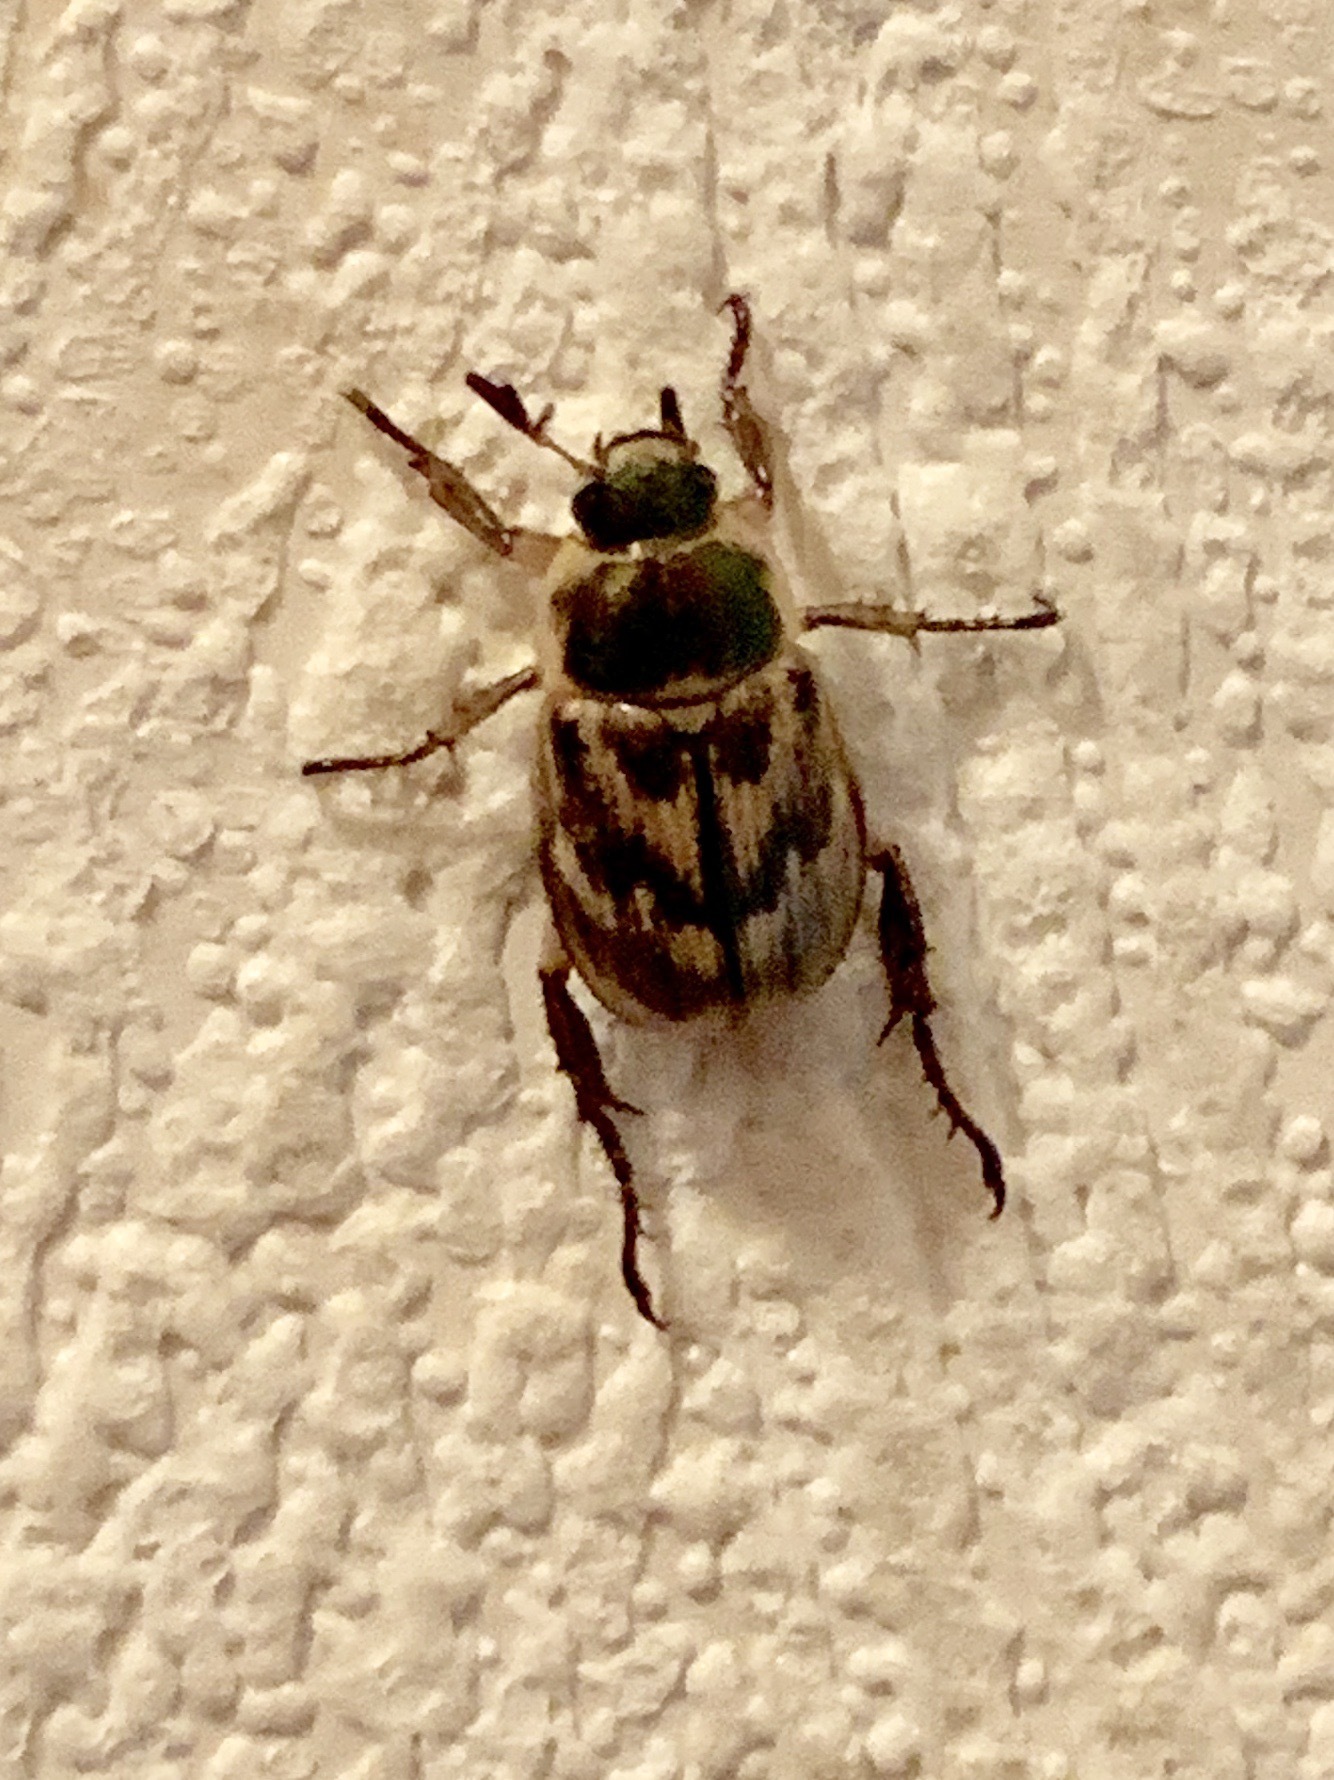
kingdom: Animalia
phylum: Arthropoda
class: Insecta
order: Coleoptera
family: Scarabaeidae
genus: Exomala
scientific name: Exomala orientalis
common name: Oriental beetle
